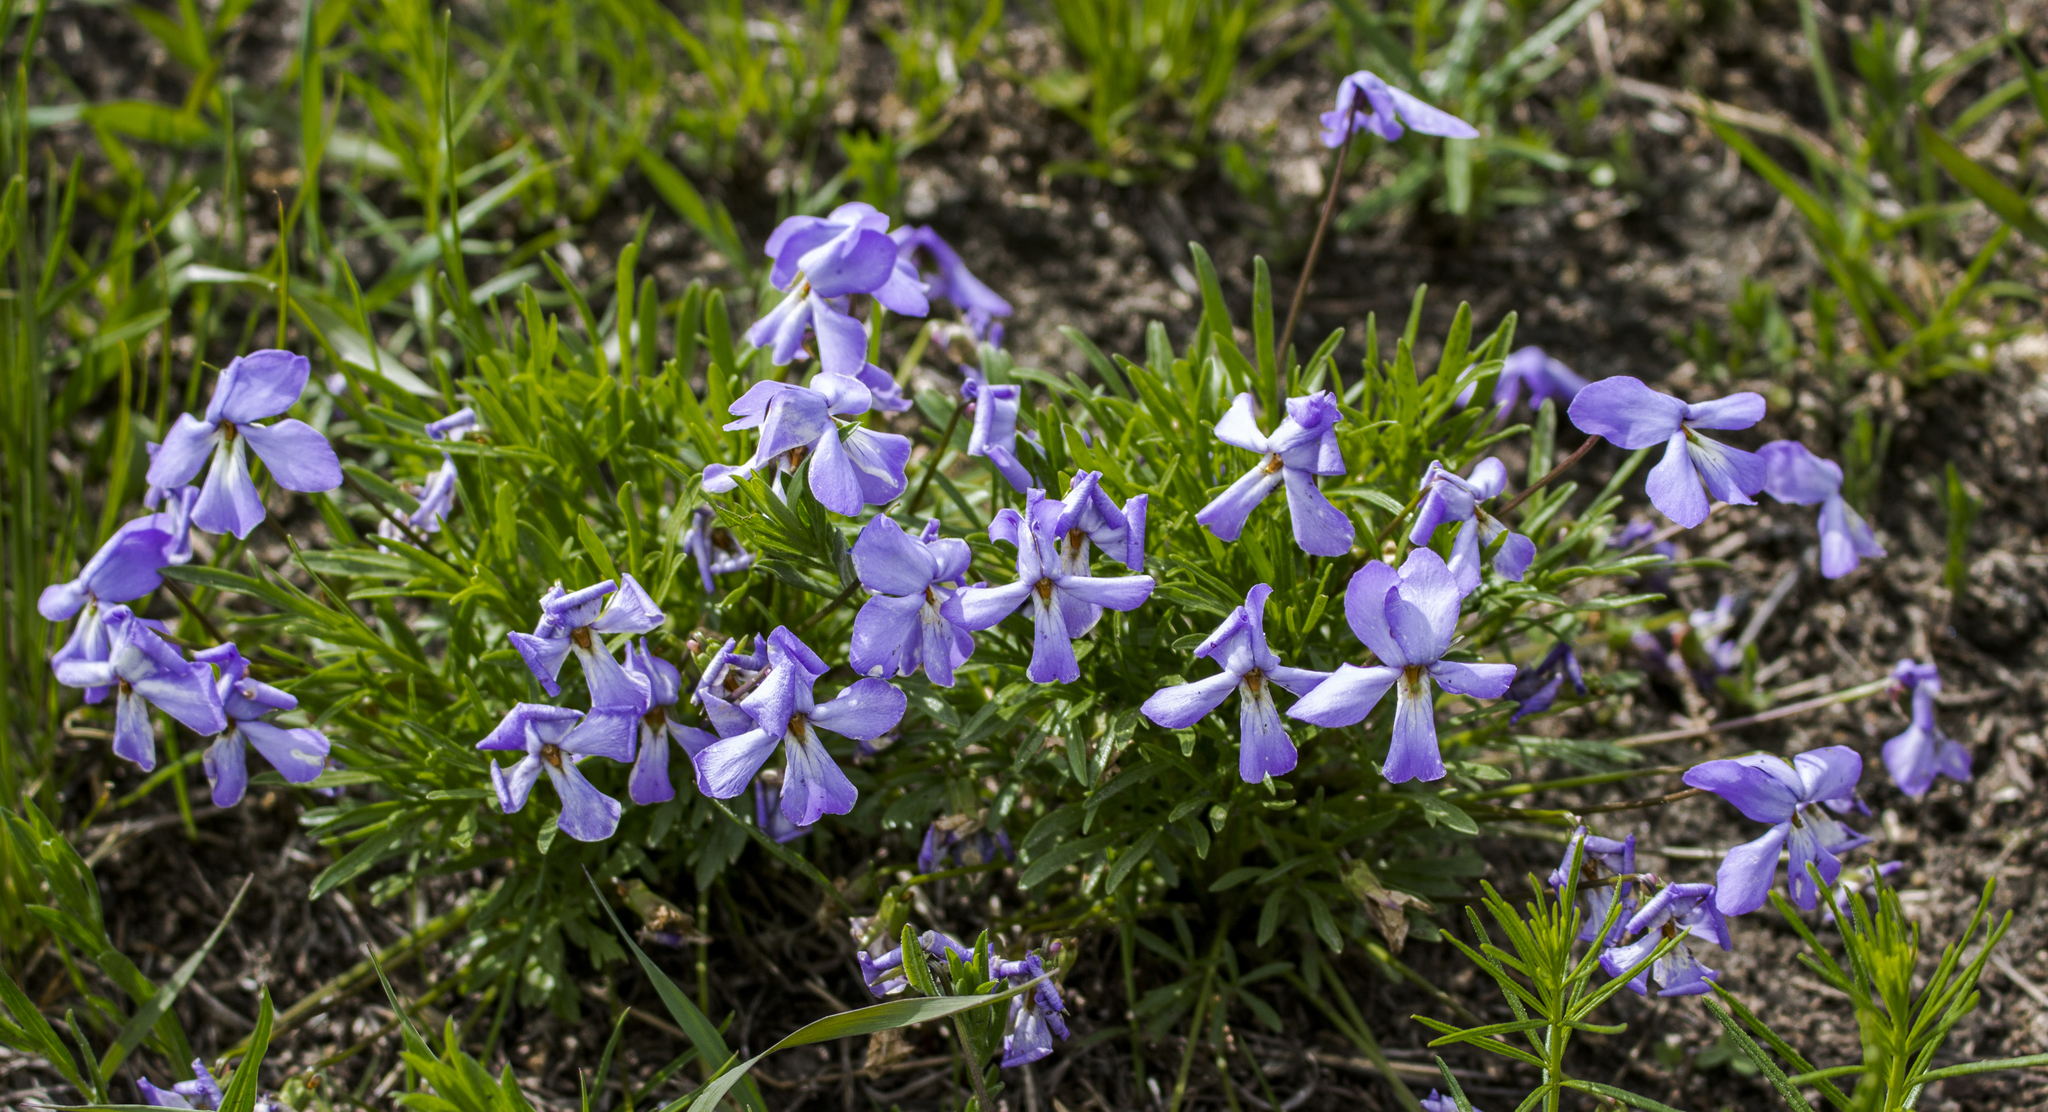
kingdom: Plantae
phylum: Tracheophyta
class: Magnoliopsida
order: Malpighiales
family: Violaceae
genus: Viola
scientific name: Viola pedata
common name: Pansy violet
